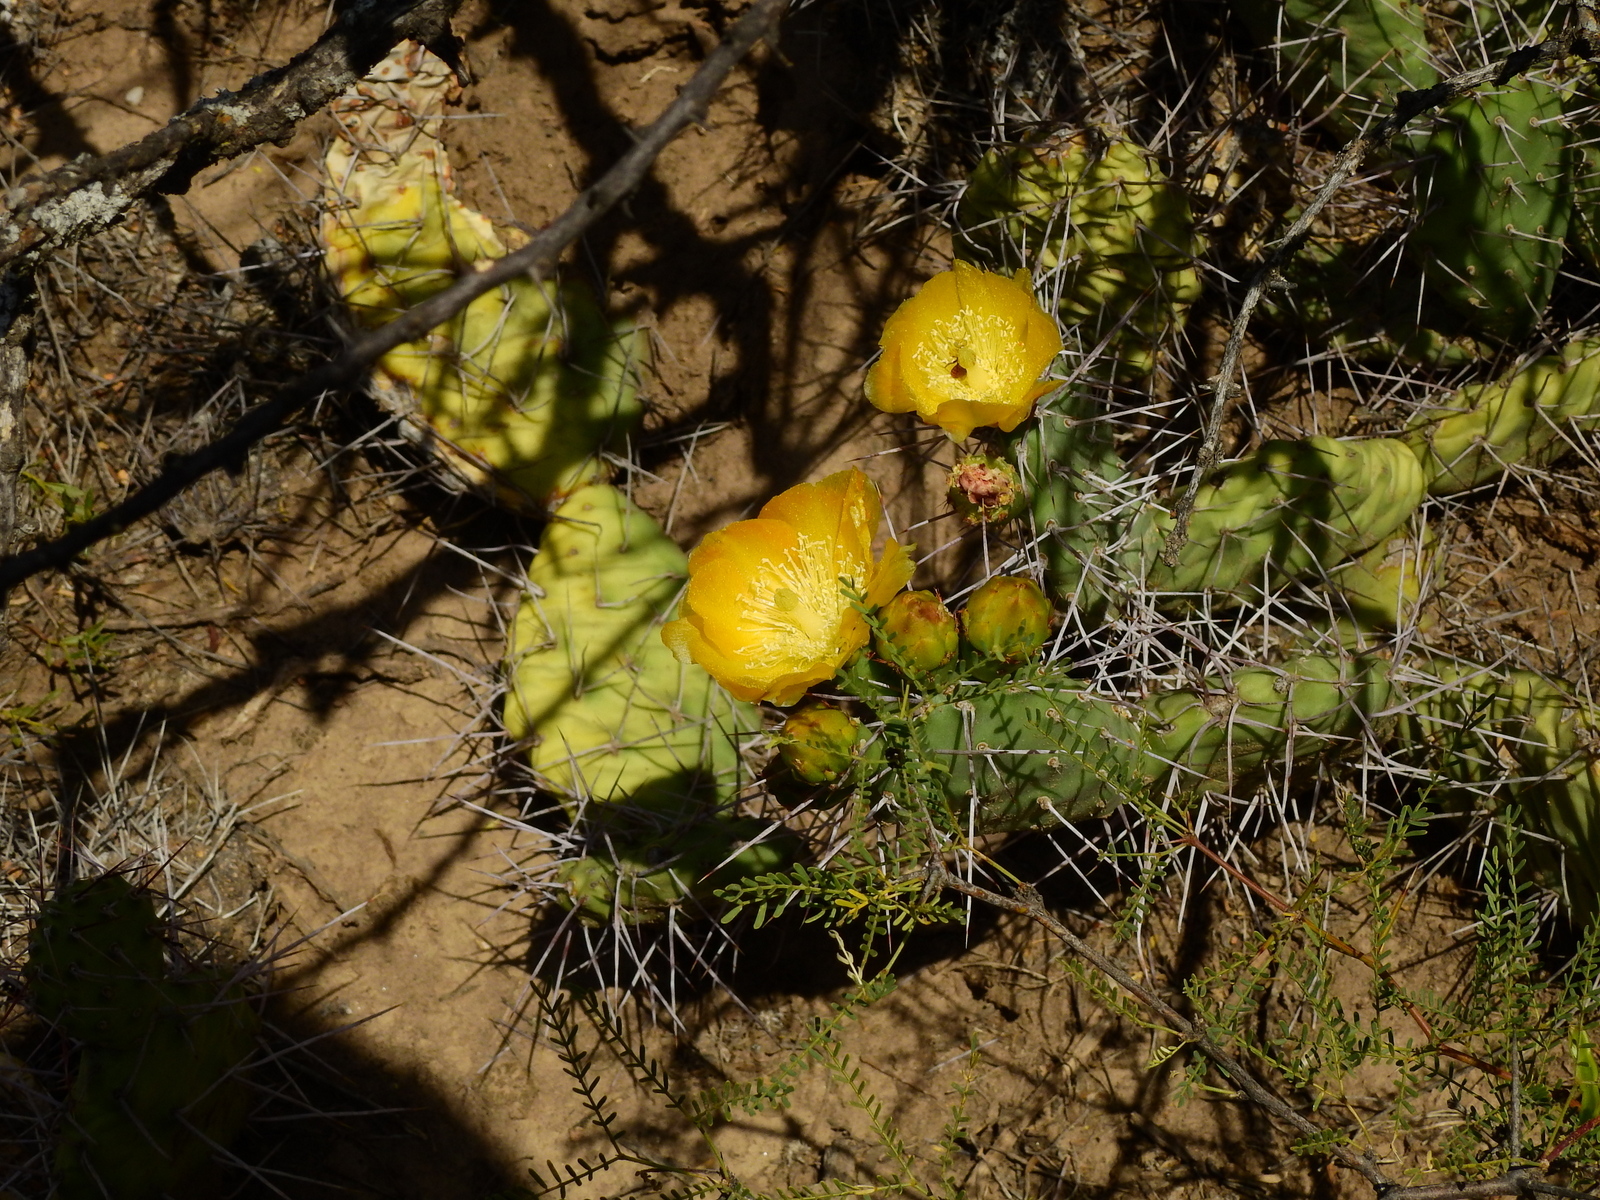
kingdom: Plantae
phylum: Tracheophyta
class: Magnoliopsida
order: Caryophyllales
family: Cactaceae
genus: Opuntia
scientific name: Opuntia sulphurea
